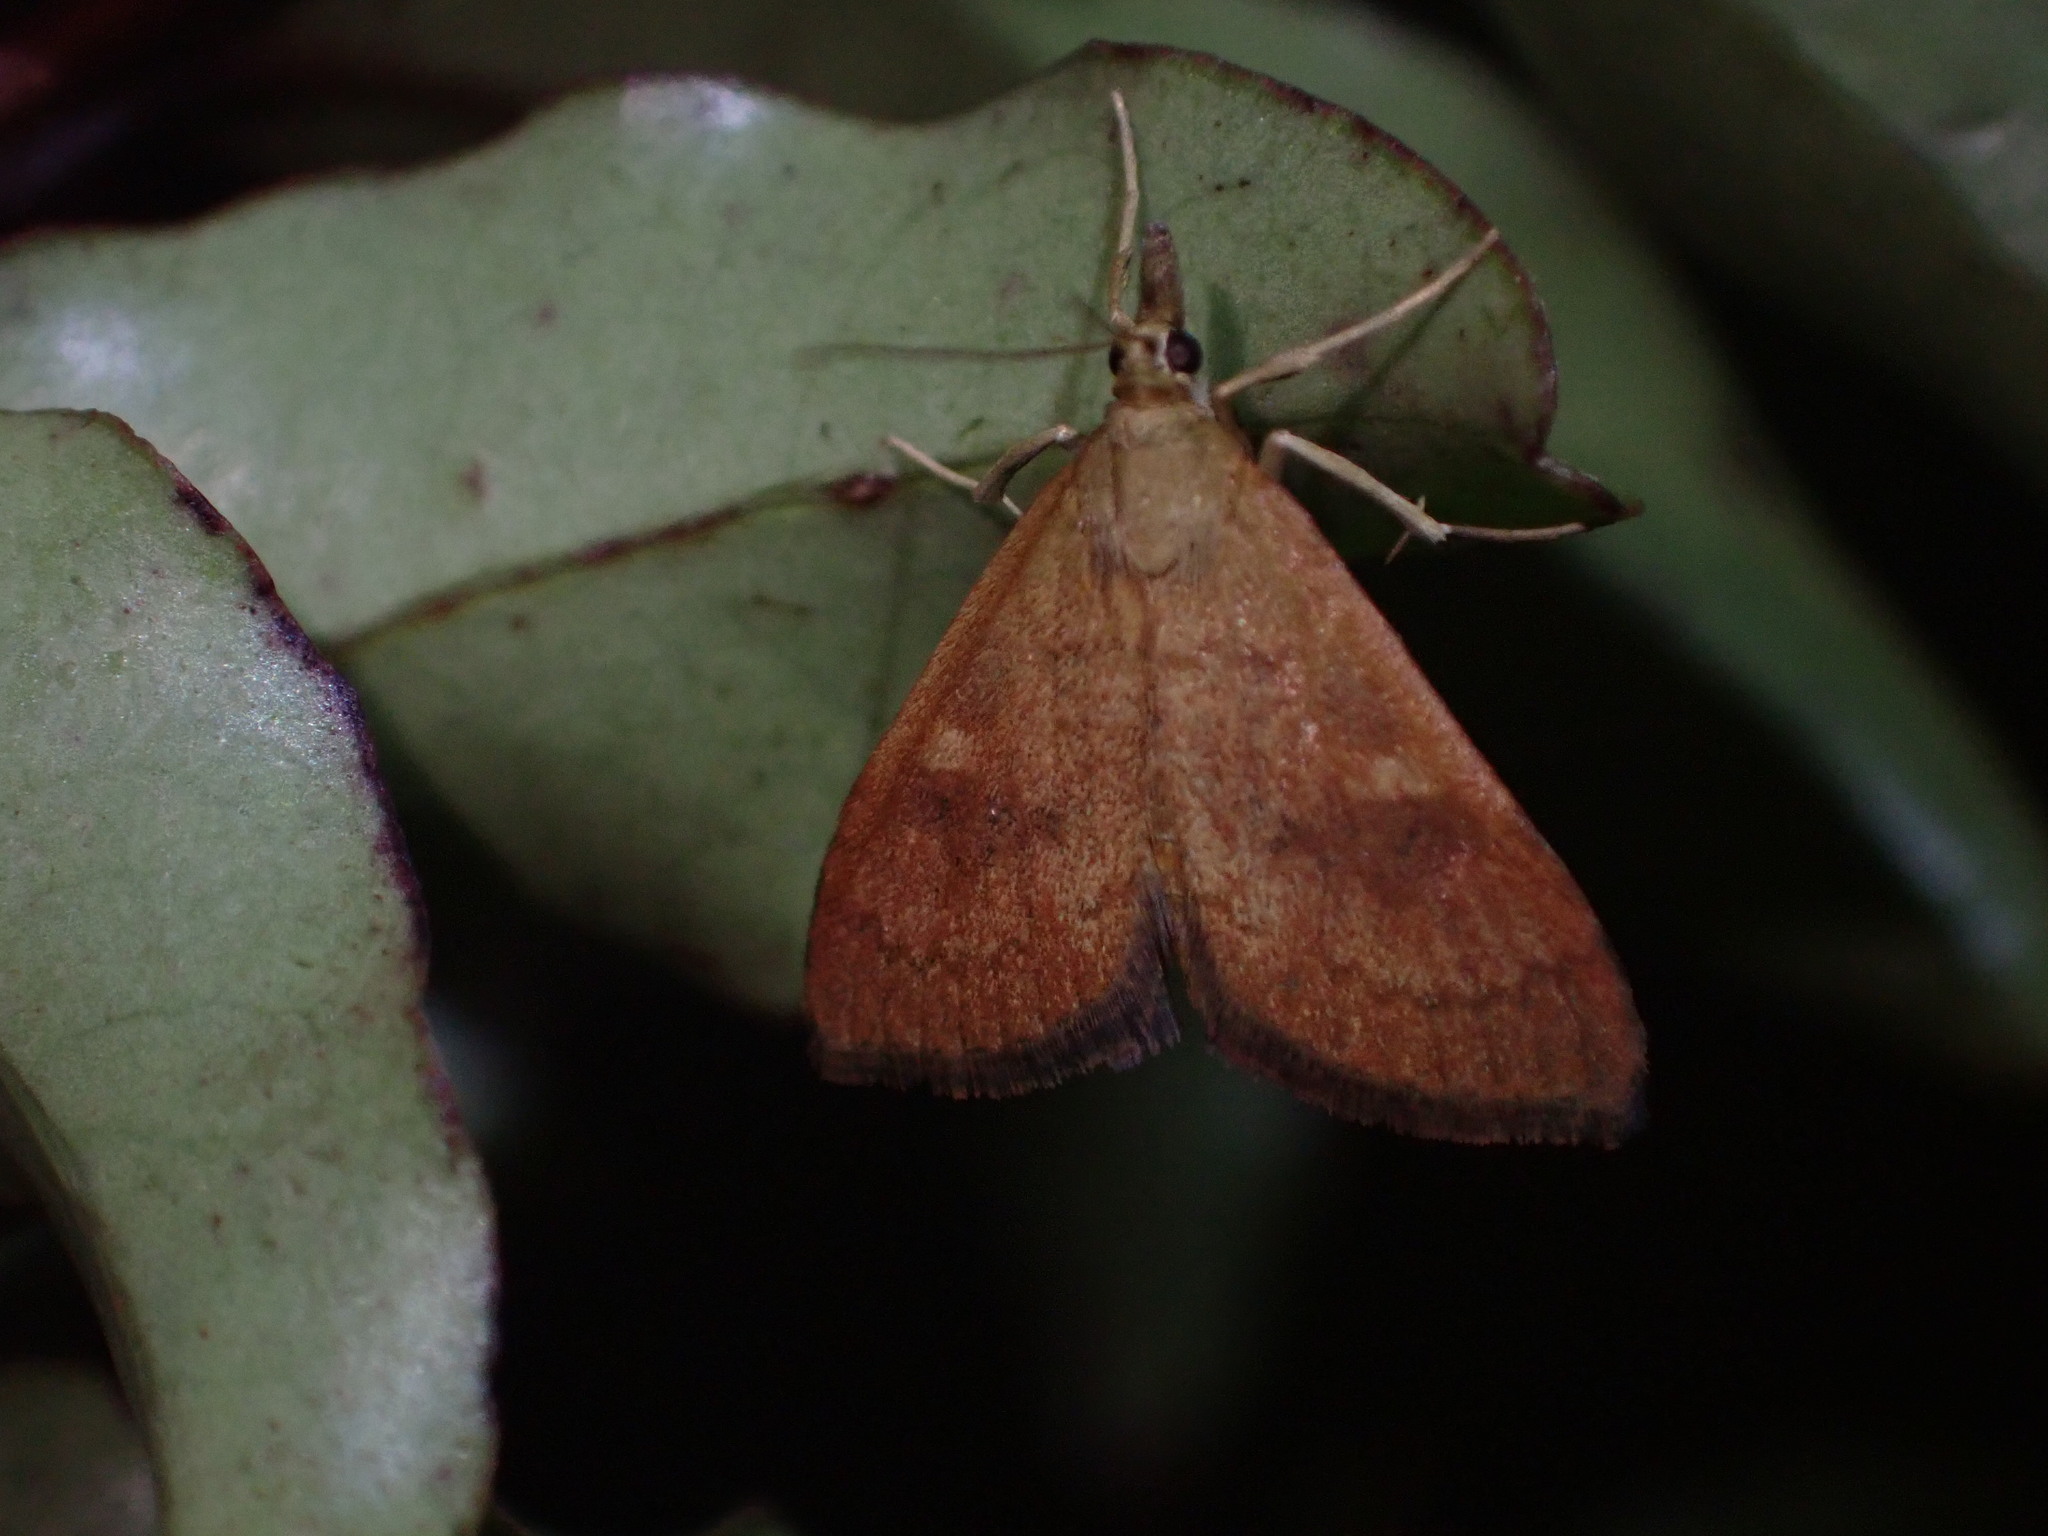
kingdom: Animalia
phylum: Arthropoda
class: Insecta
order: Lepidoptera
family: Crambidae
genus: Udea
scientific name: Udea Mnesictena flavidalis
